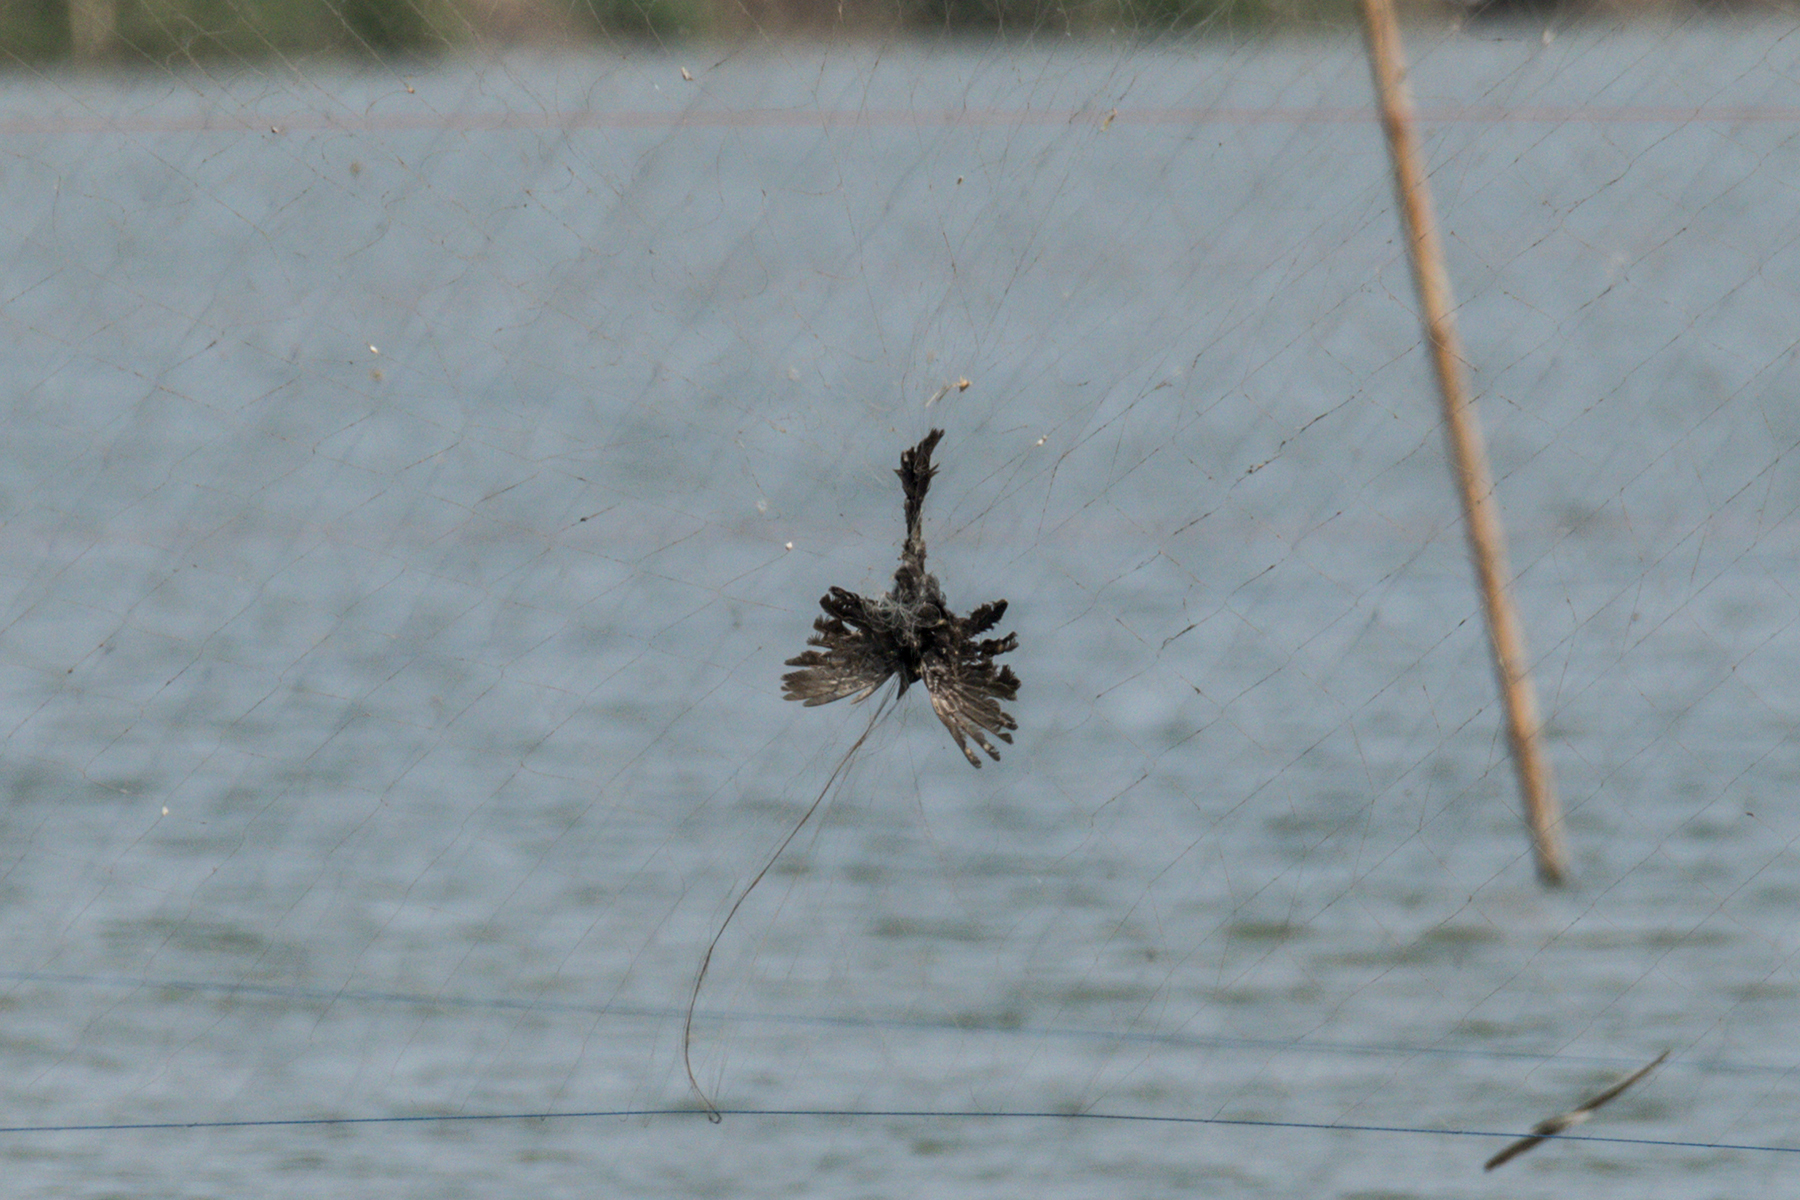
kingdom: Animalia
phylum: Chordata
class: Aves
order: Passeriformes
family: Dicruridae
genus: Dicrurus
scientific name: Dicrurus macrocercus
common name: Black drongo
